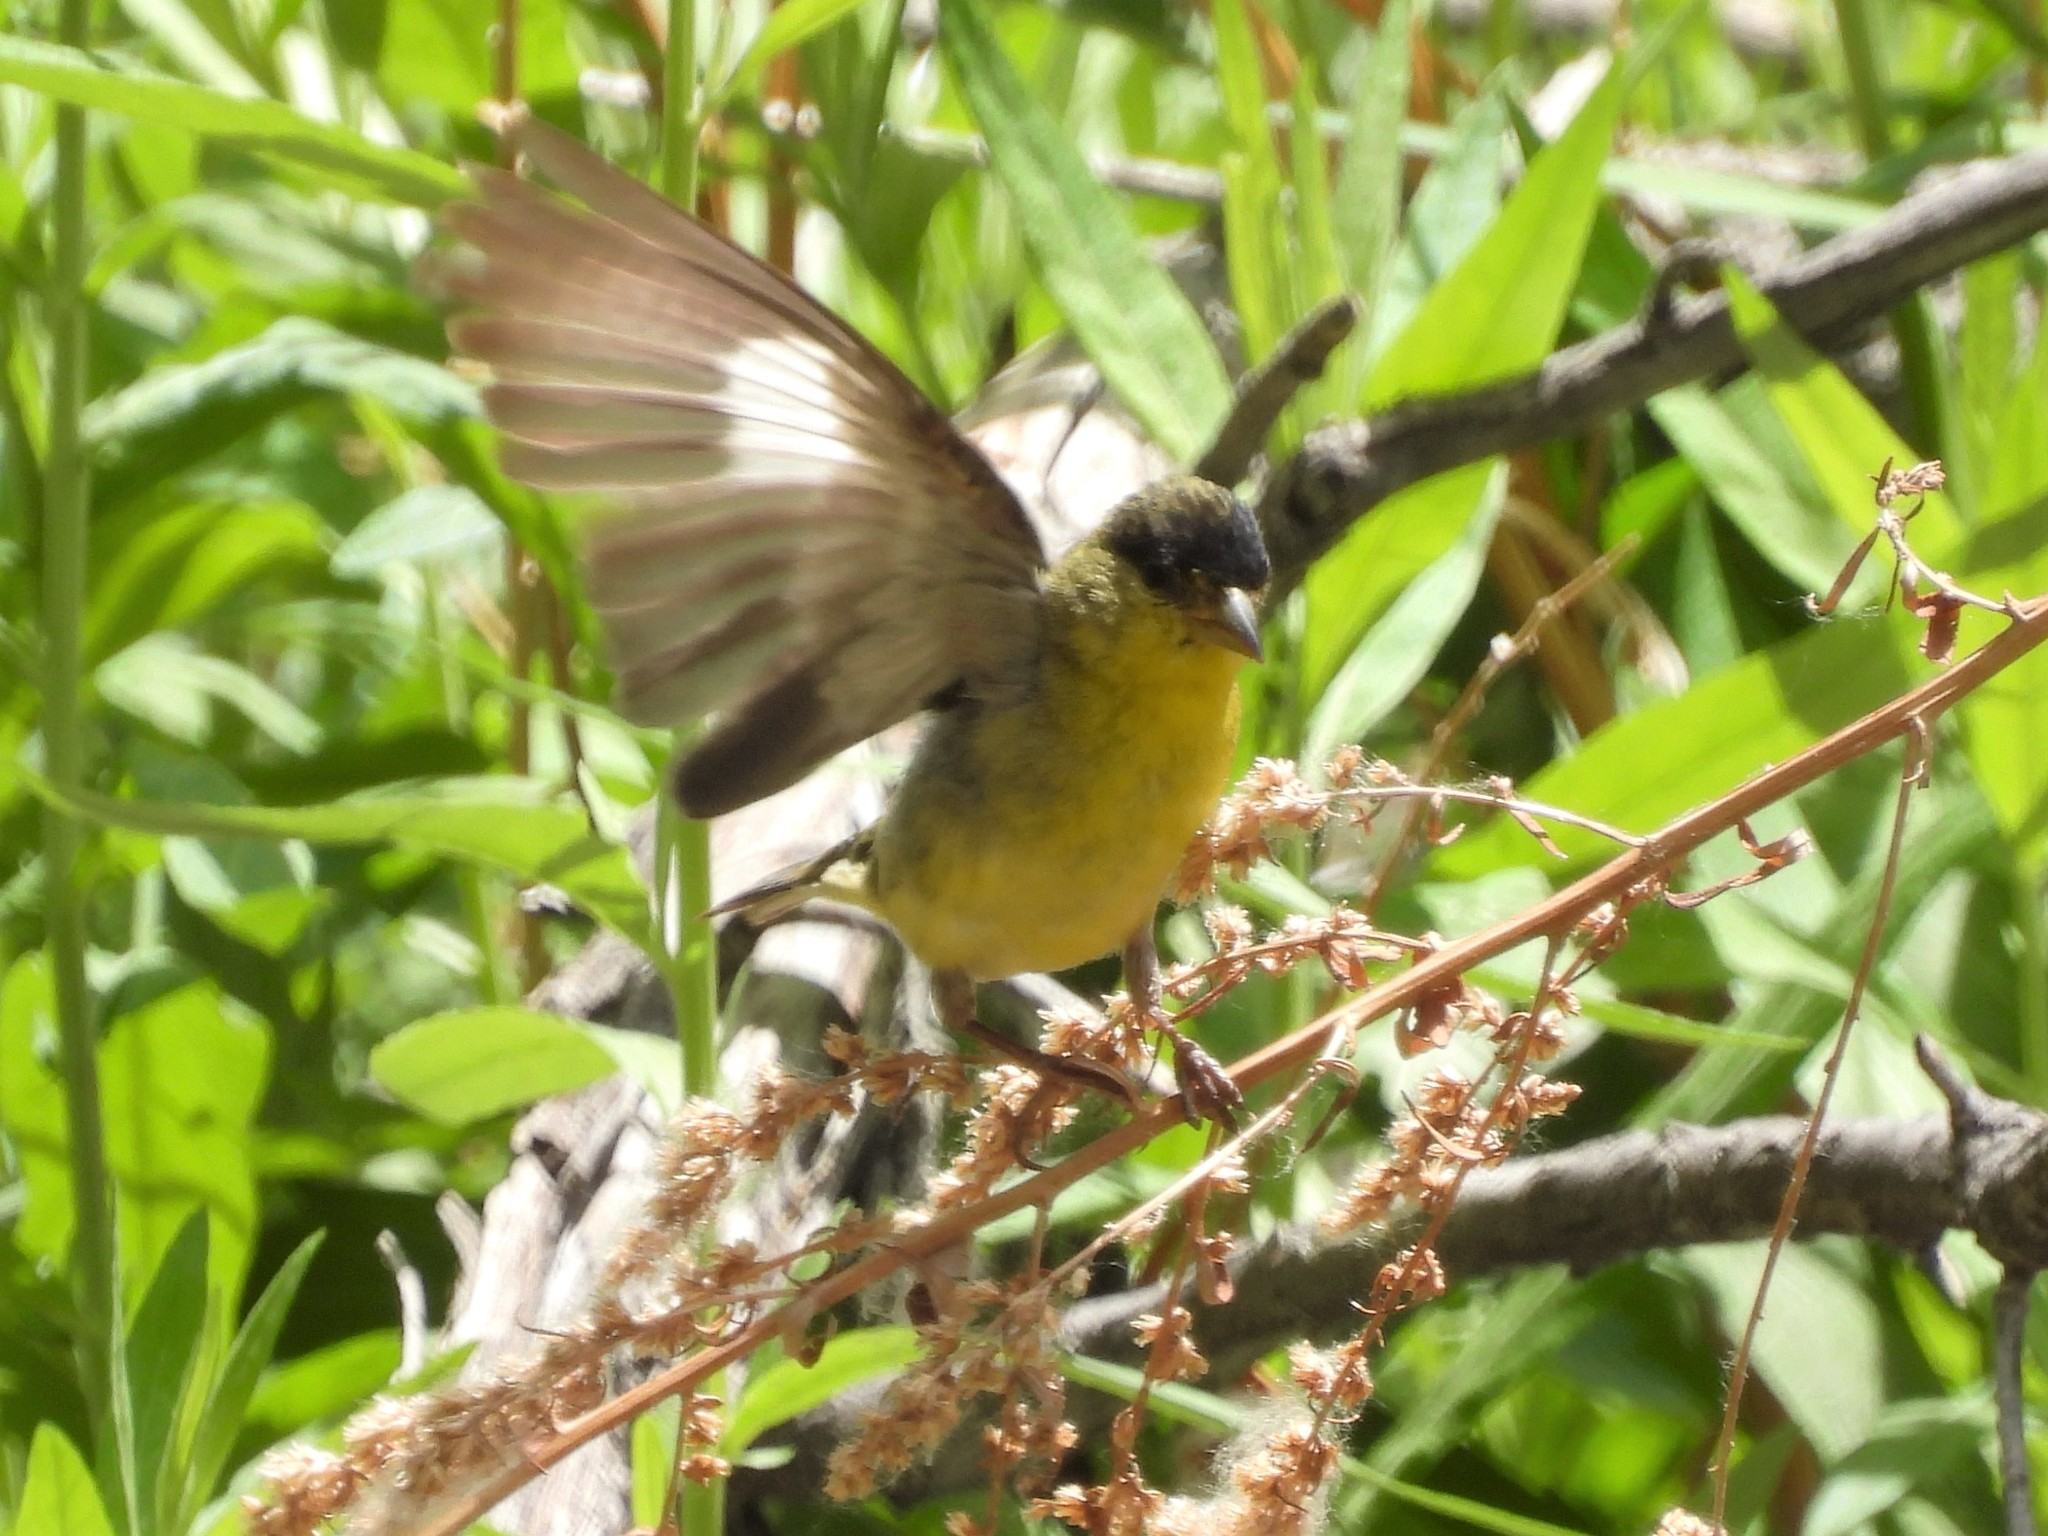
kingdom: Animalia
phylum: Chordata
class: Aves
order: Passeriformes
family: Fringillidae
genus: Spinus
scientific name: Spinus psaltria
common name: Lesser goldfinch
